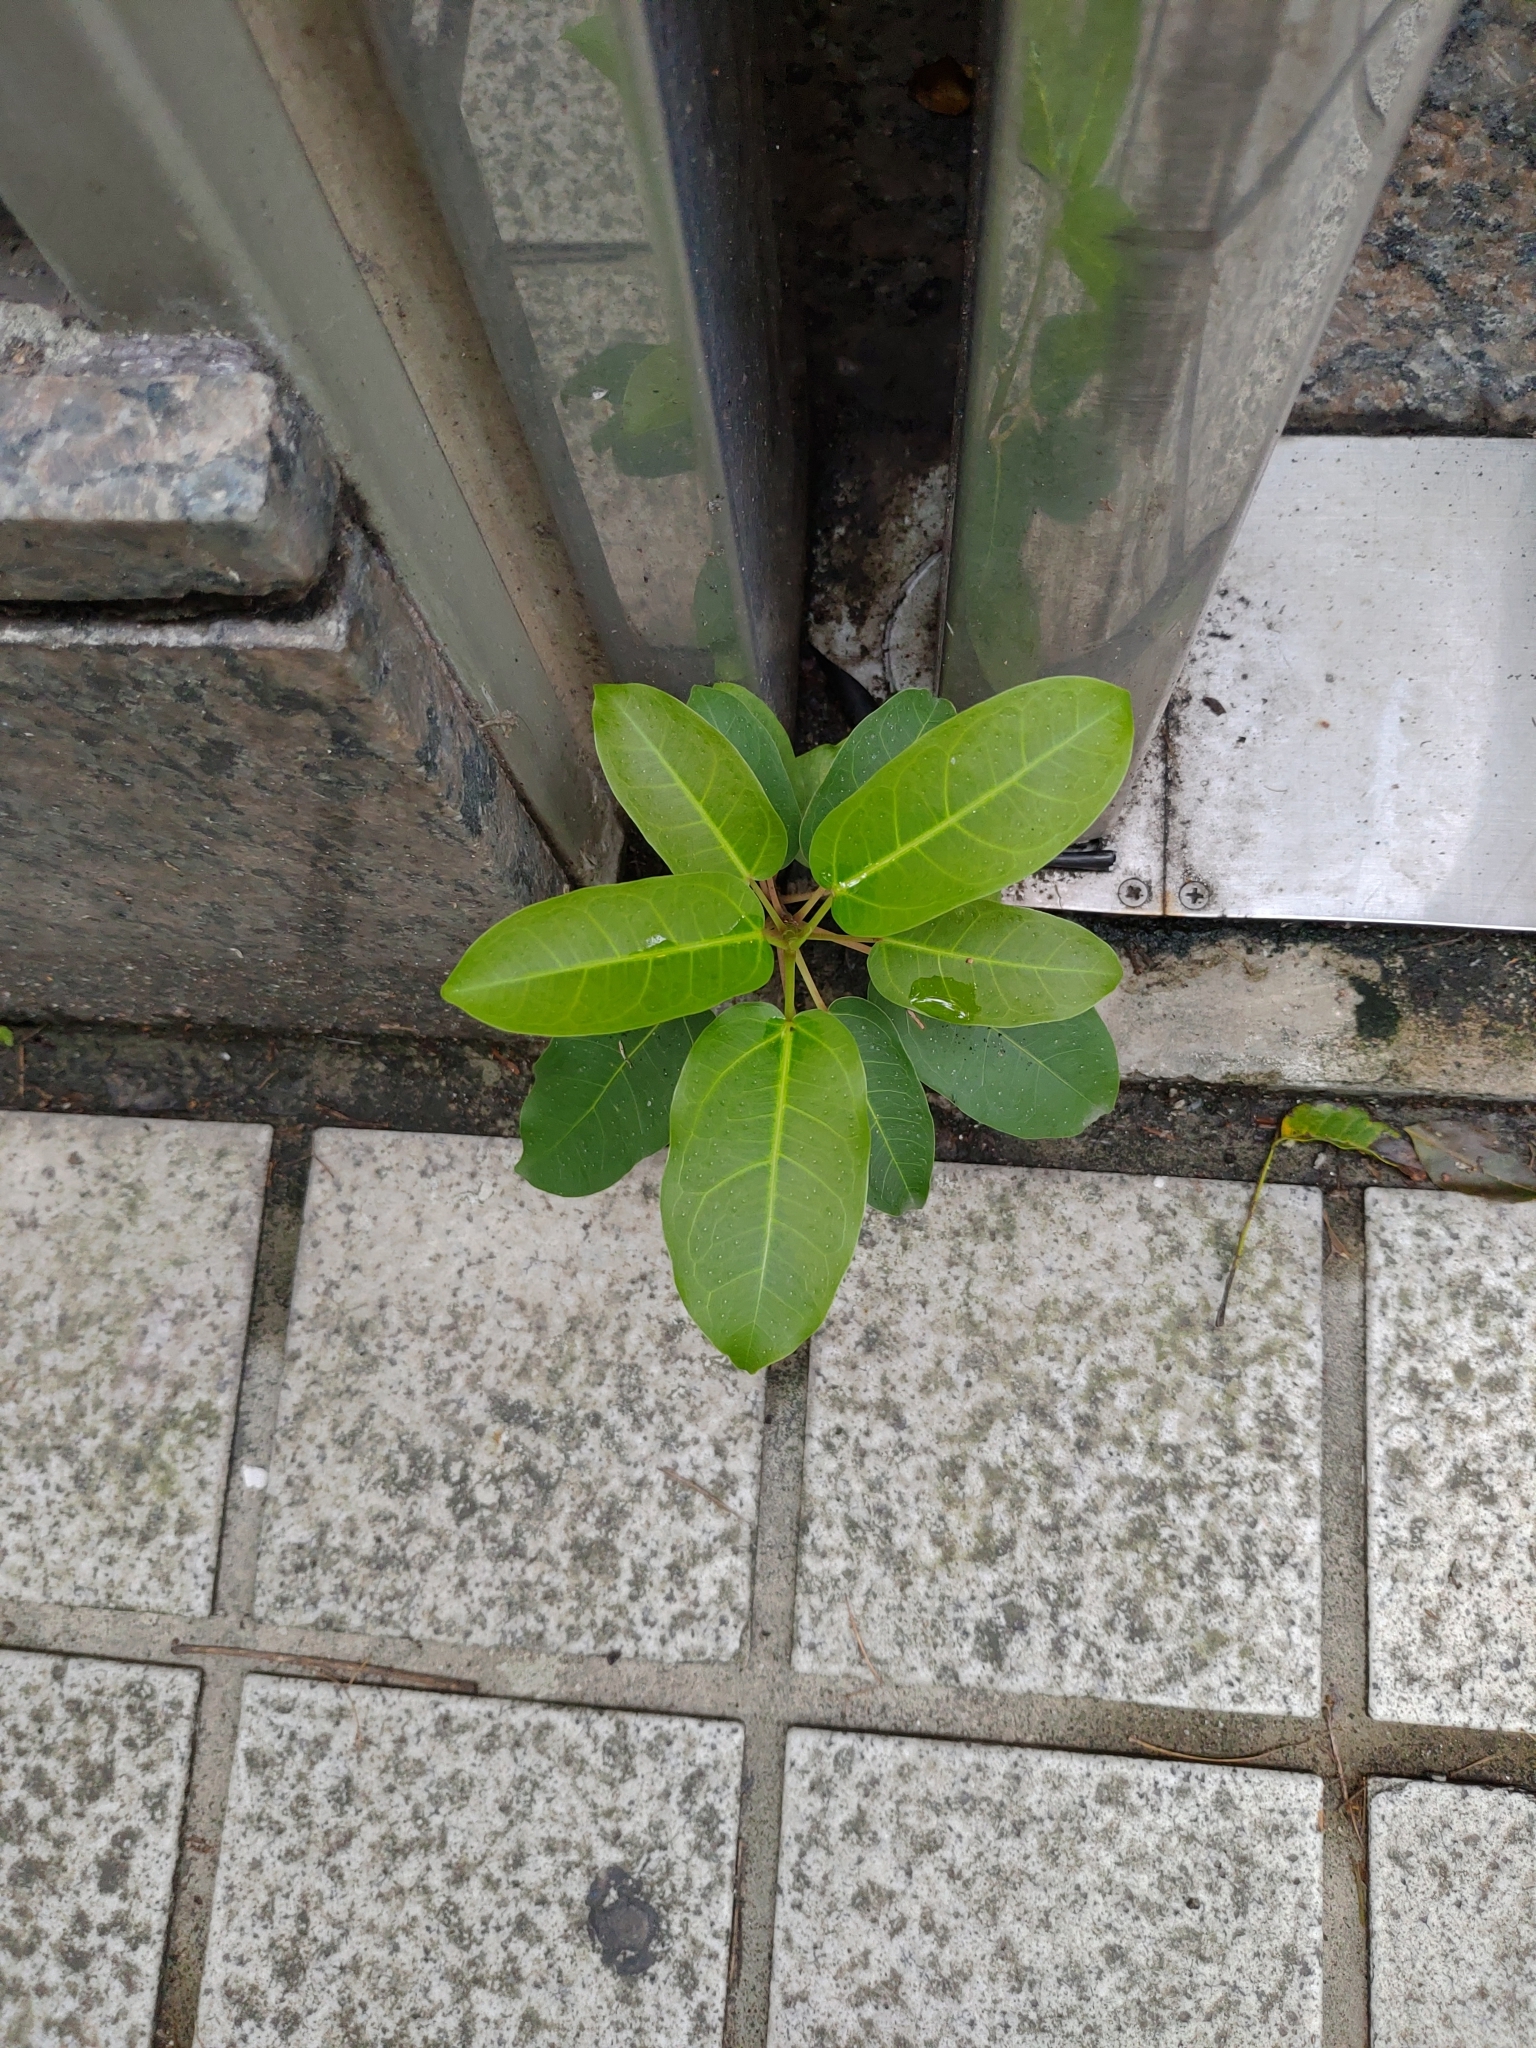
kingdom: Plantae
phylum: Tracheophyta
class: Magnoliopsida
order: Rosales
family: Moraceae
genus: Ficus
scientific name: Ficus subpisocarpa
